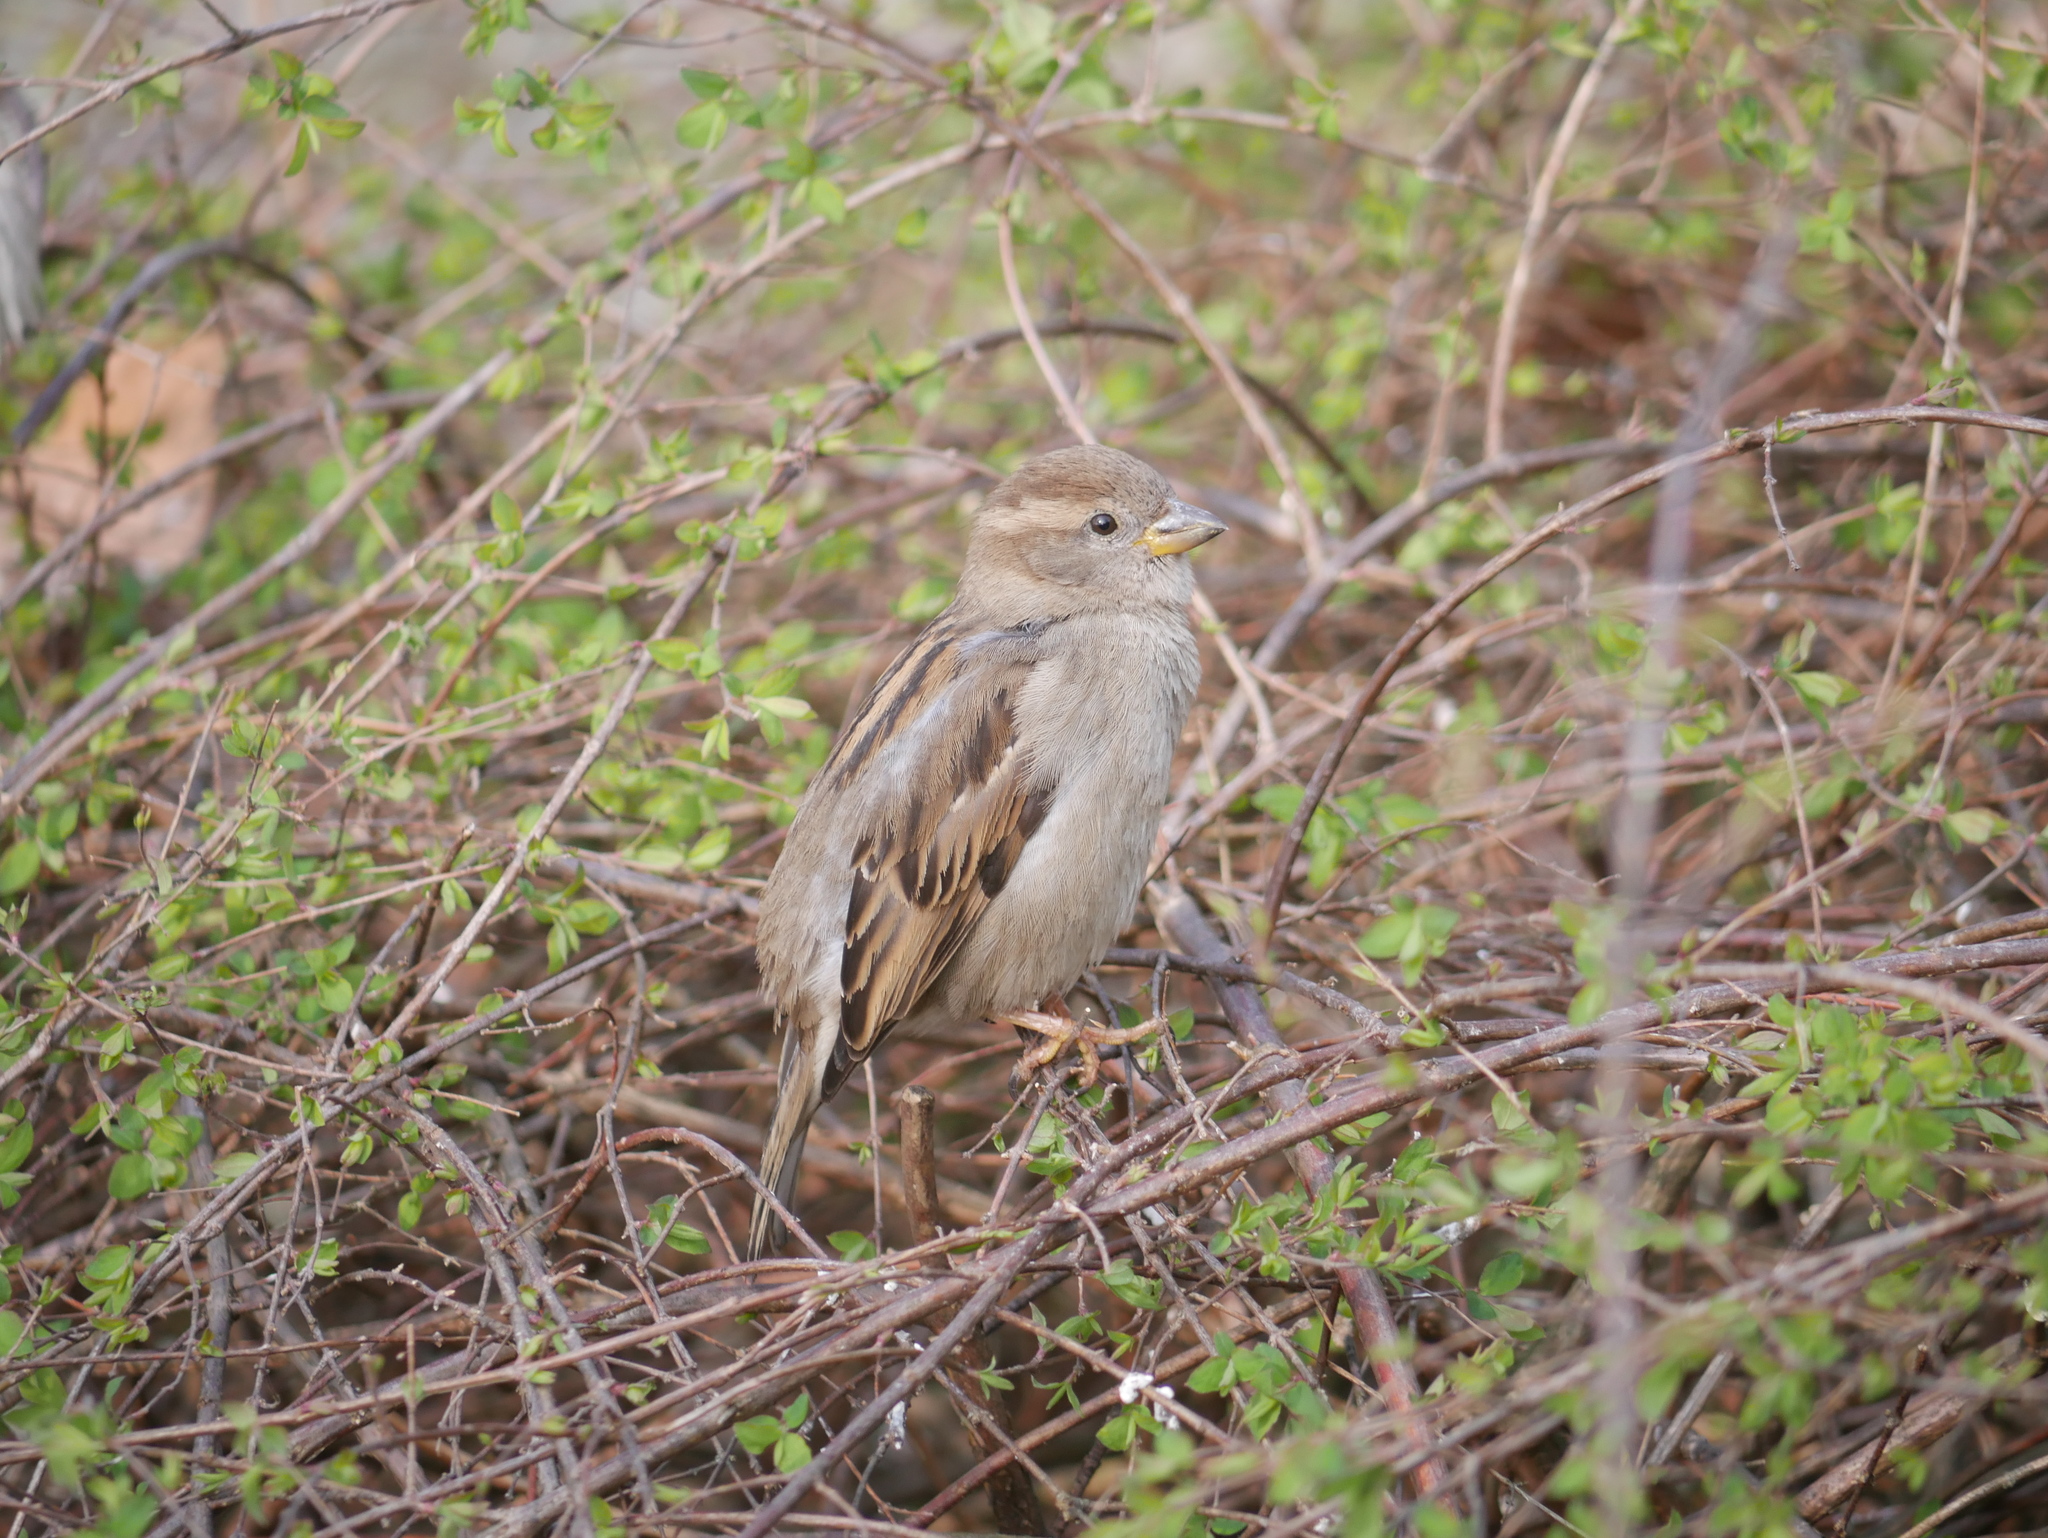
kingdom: Animalia
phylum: Chordata
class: Aves
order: Passeriformes
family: Passeridae
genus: Passer
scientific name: Passer domesticus
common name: House sparrow
